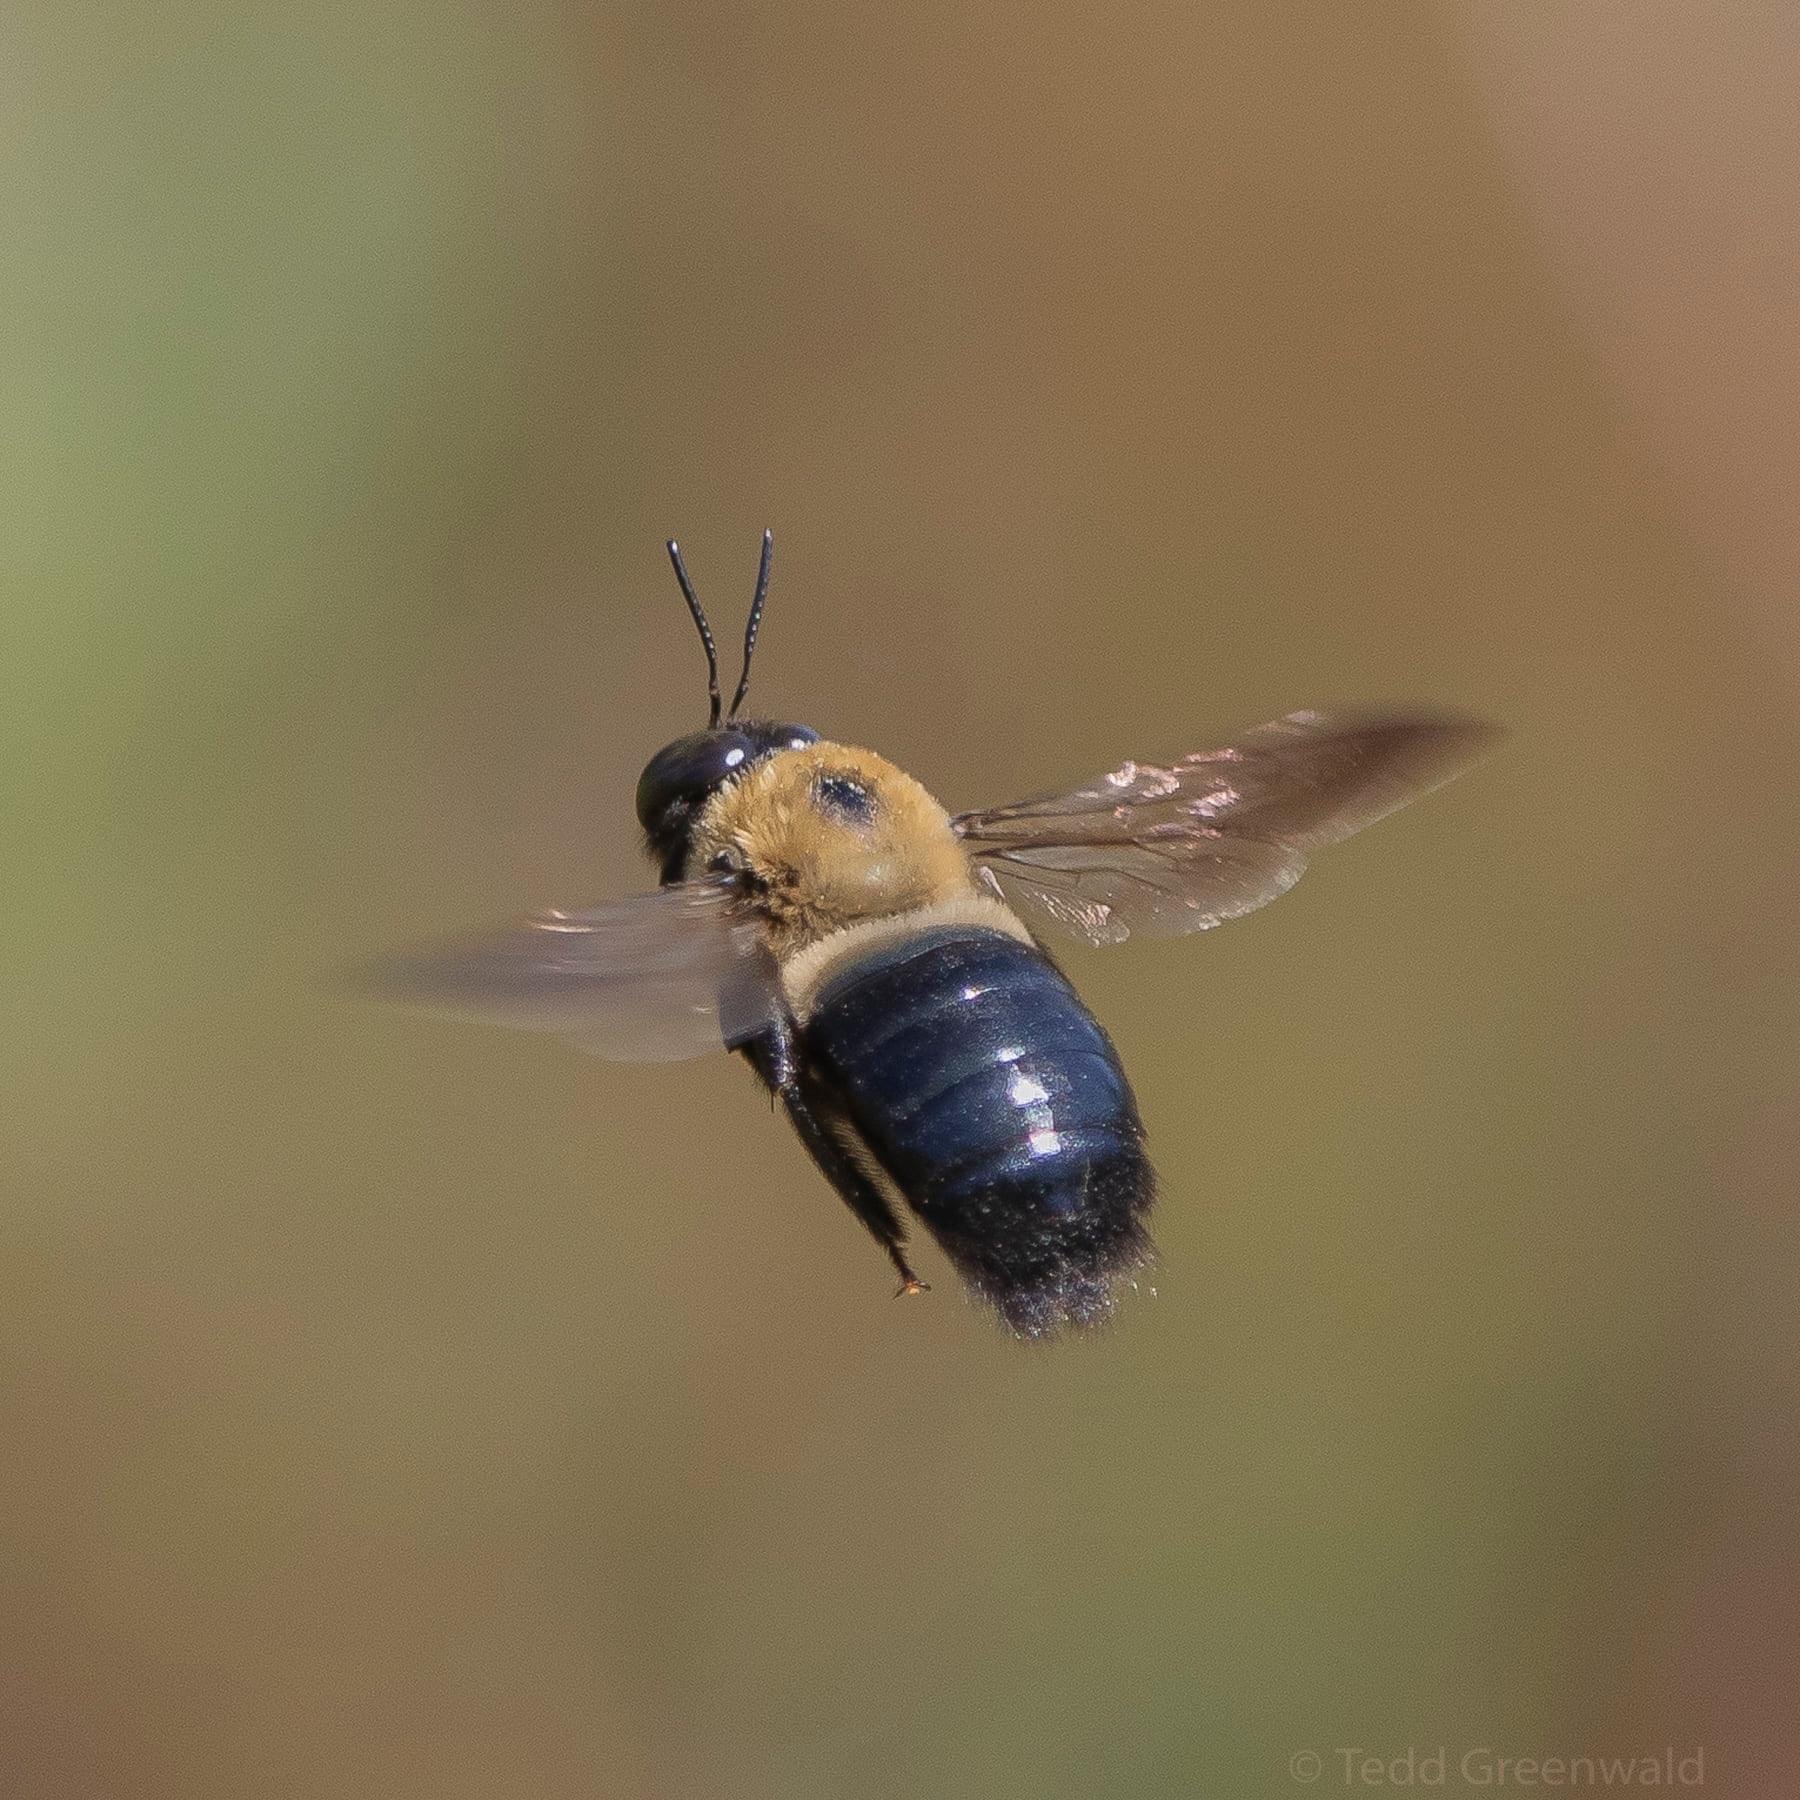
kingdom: Animalia
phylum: Arthropoda
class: Insecta
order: Hymenoptera
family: Apidae
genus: Xylocopa
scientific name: Xylocopa virginica
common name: Carpenter bee
